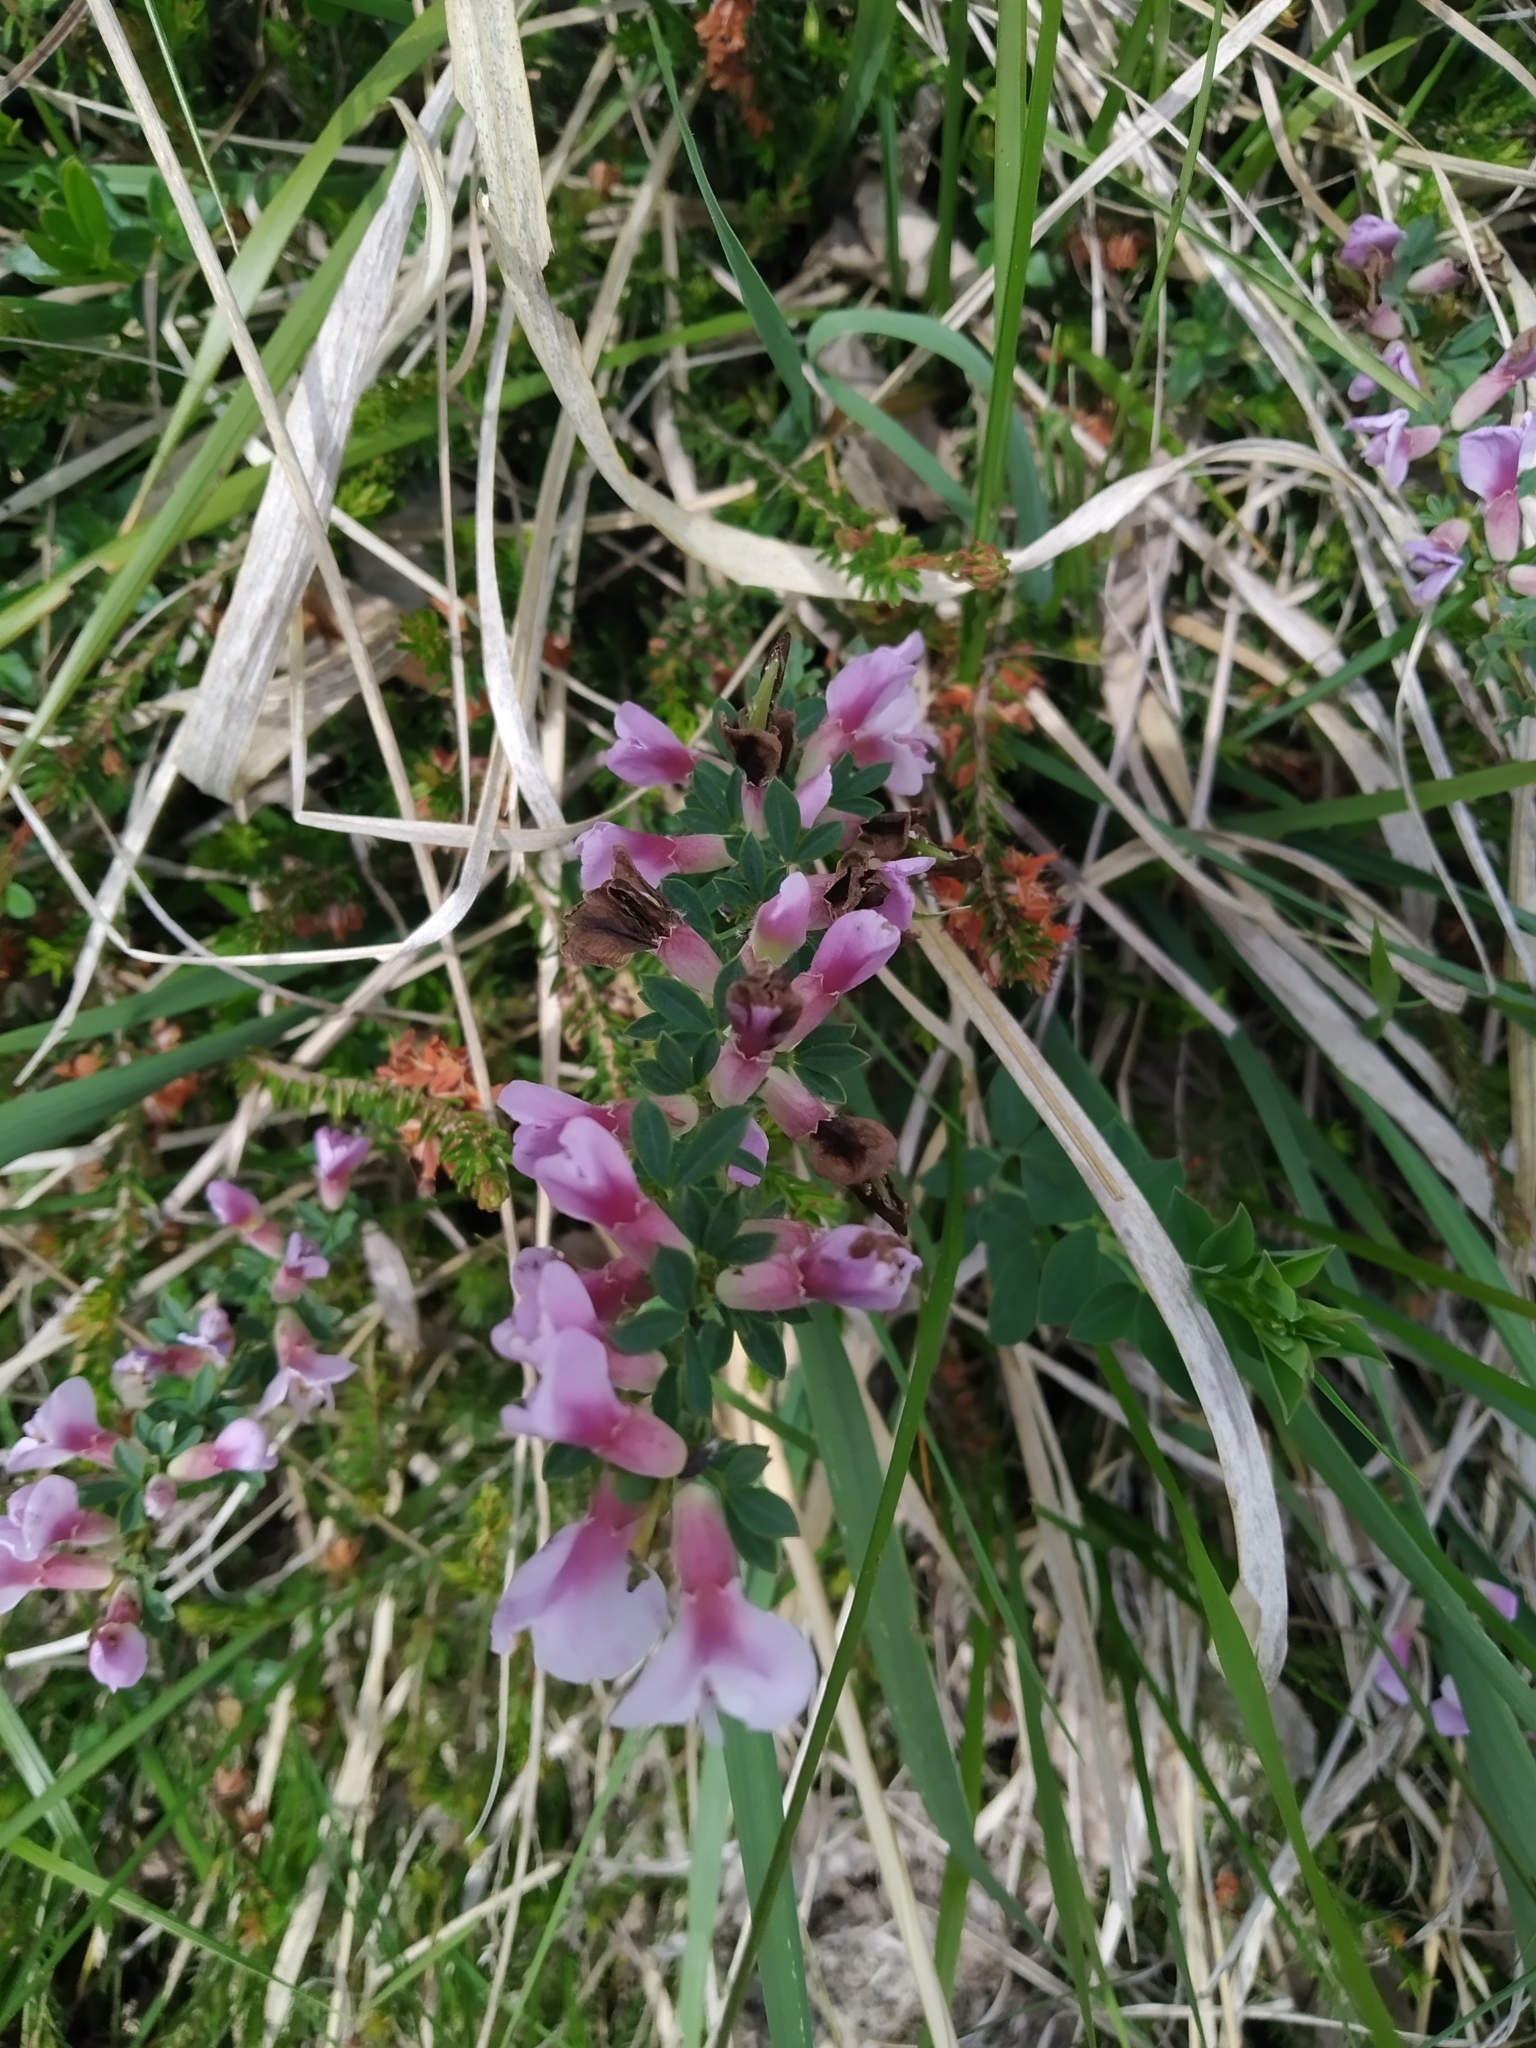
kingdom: Plantae
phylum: Tracheophyta
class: Magnoliopsida
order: Fabales
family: Fabaceae
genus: Chamaecytisus
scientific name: Chamaecytisus purpureus
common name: Purple broom
